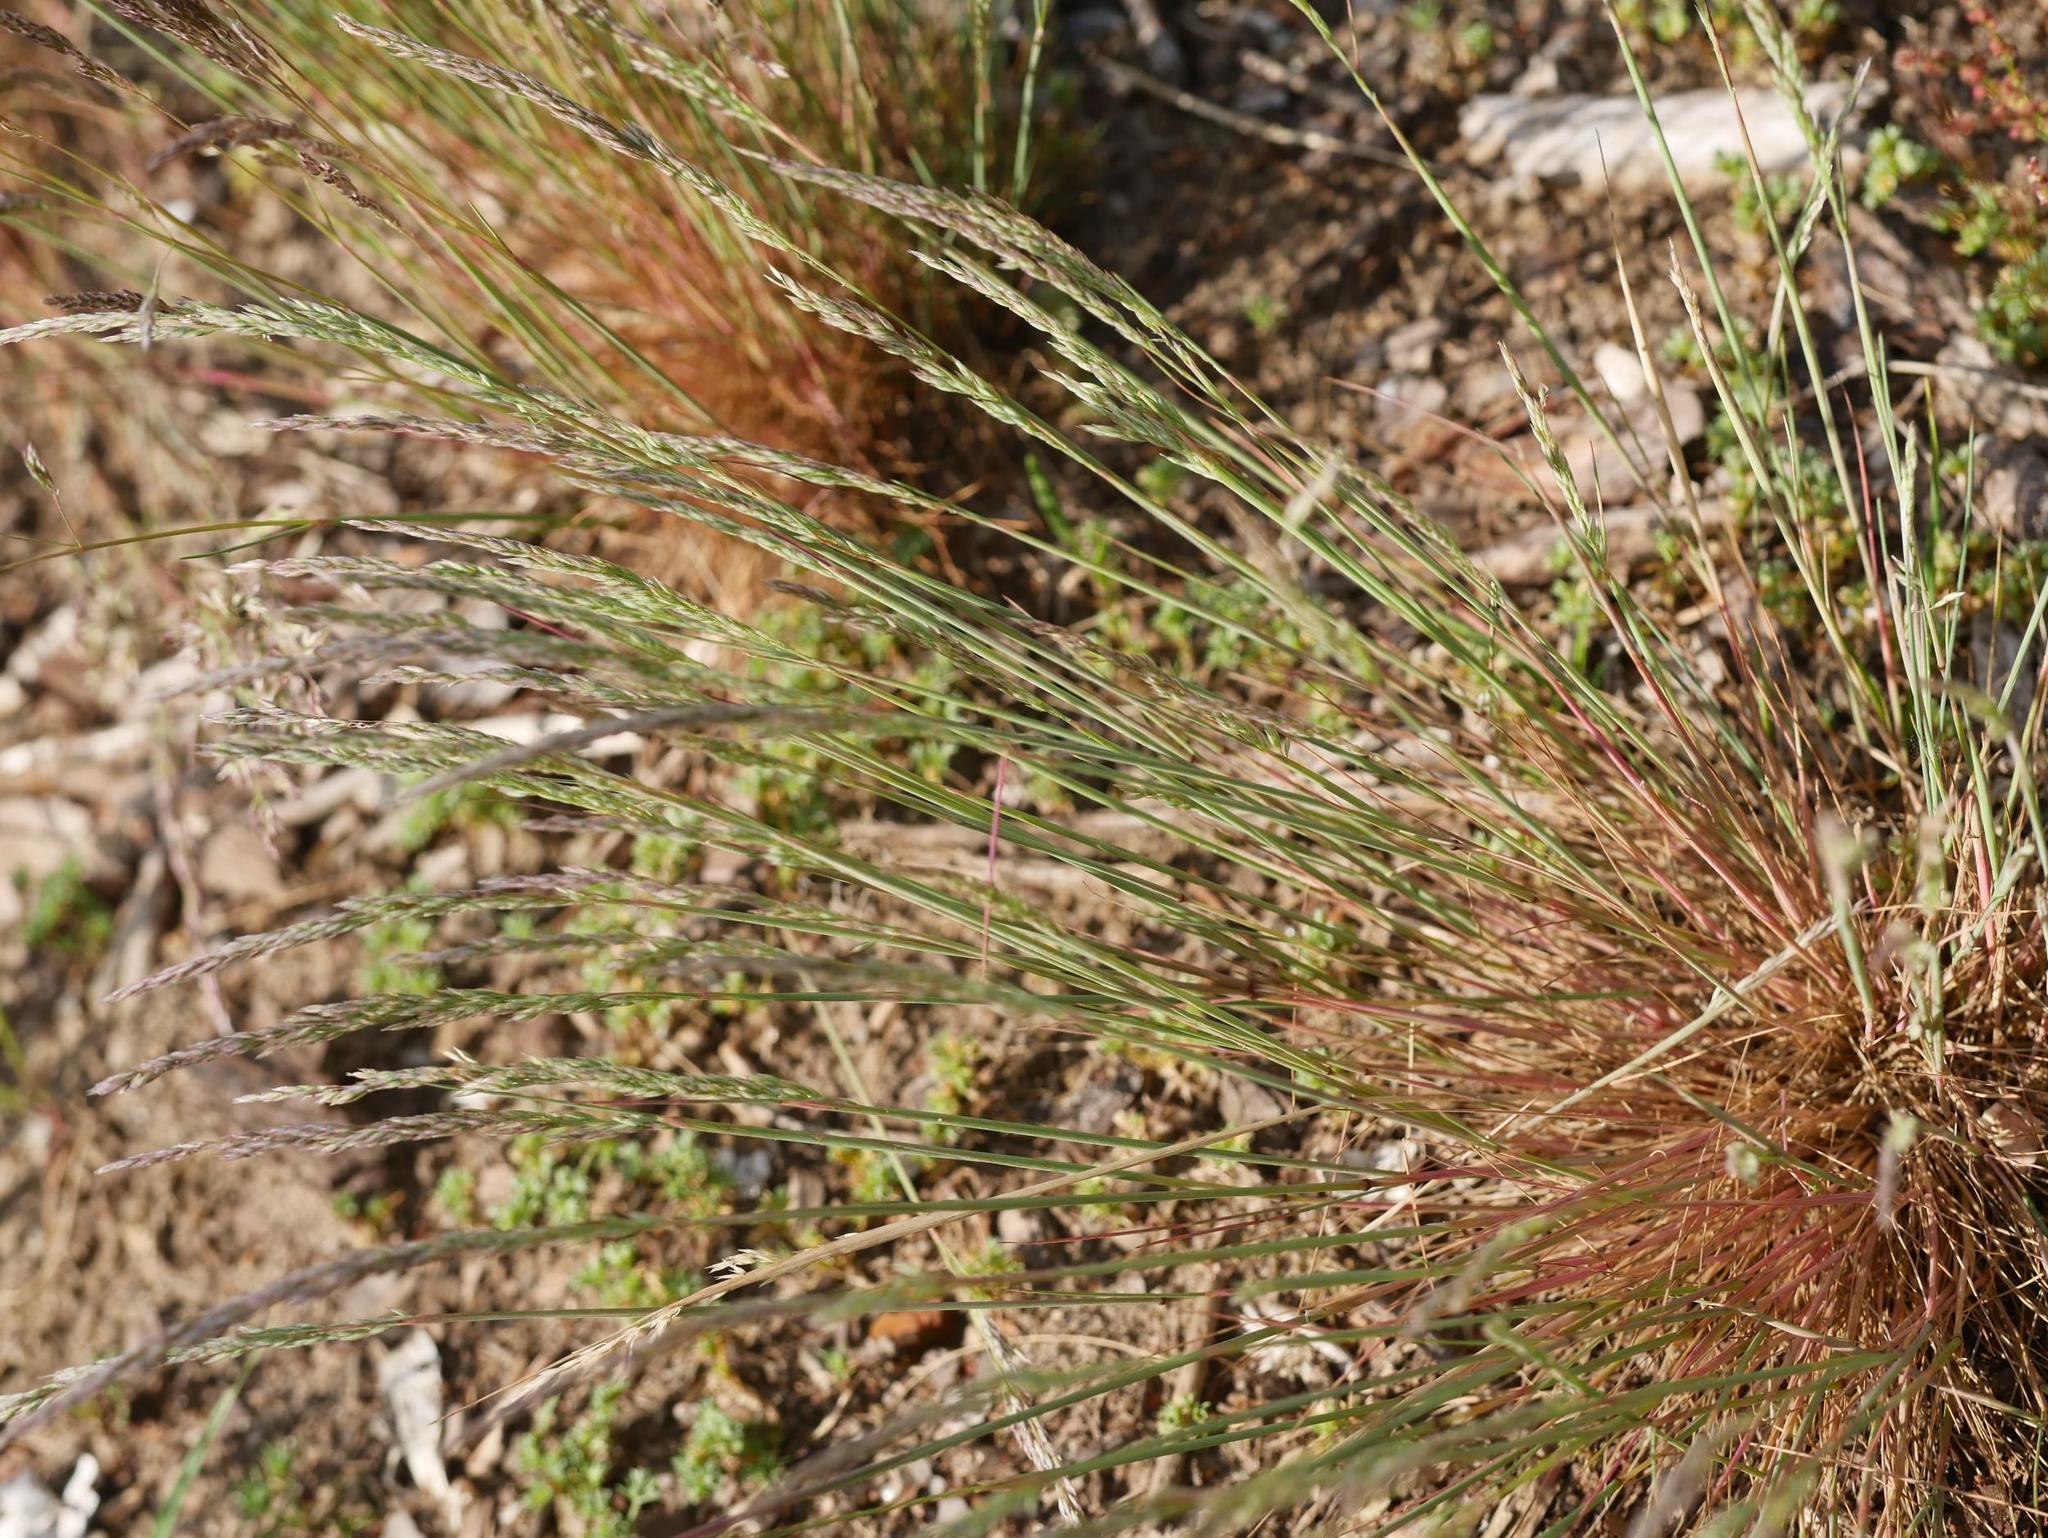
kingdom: Plantae
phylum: Tracheophyta
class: Liliopsida
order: Poales
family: Poaceae
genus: Corynephorus
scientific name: Corynephorus canescens
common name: Grey hair-grass
